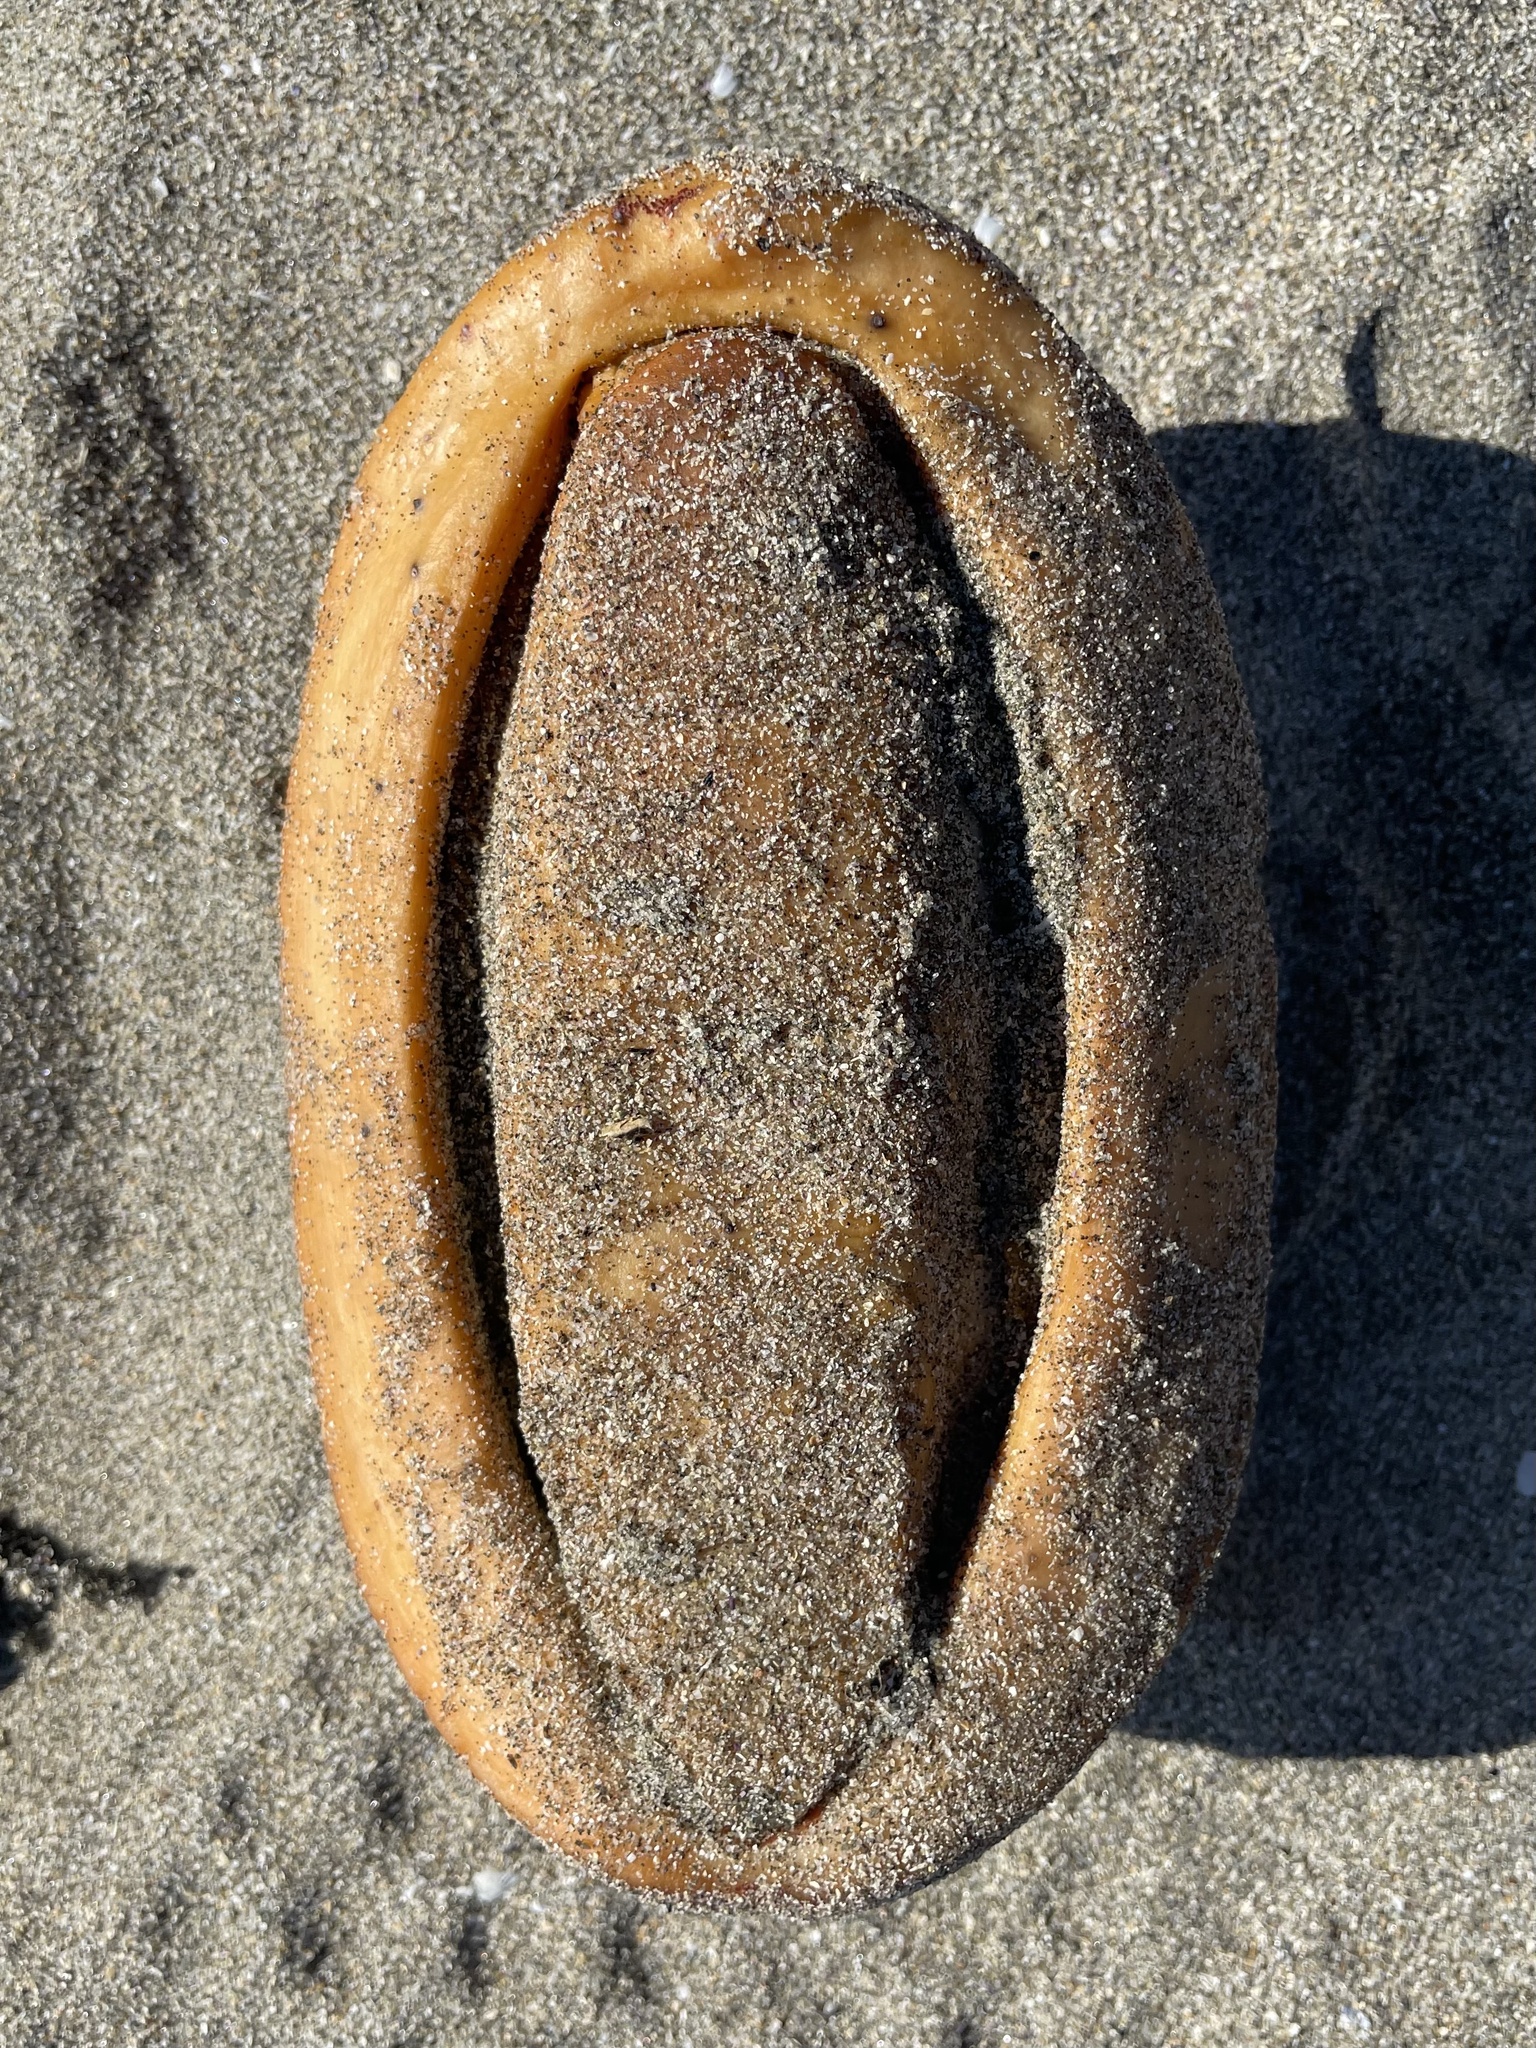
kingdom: Animalia
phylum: Mollusca
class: Polyplacophora
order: Chitonida
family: Acanthochitonidae
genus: Cryptochiton
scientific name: Cryptochiton stelleri
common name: Giant pacific chiton
